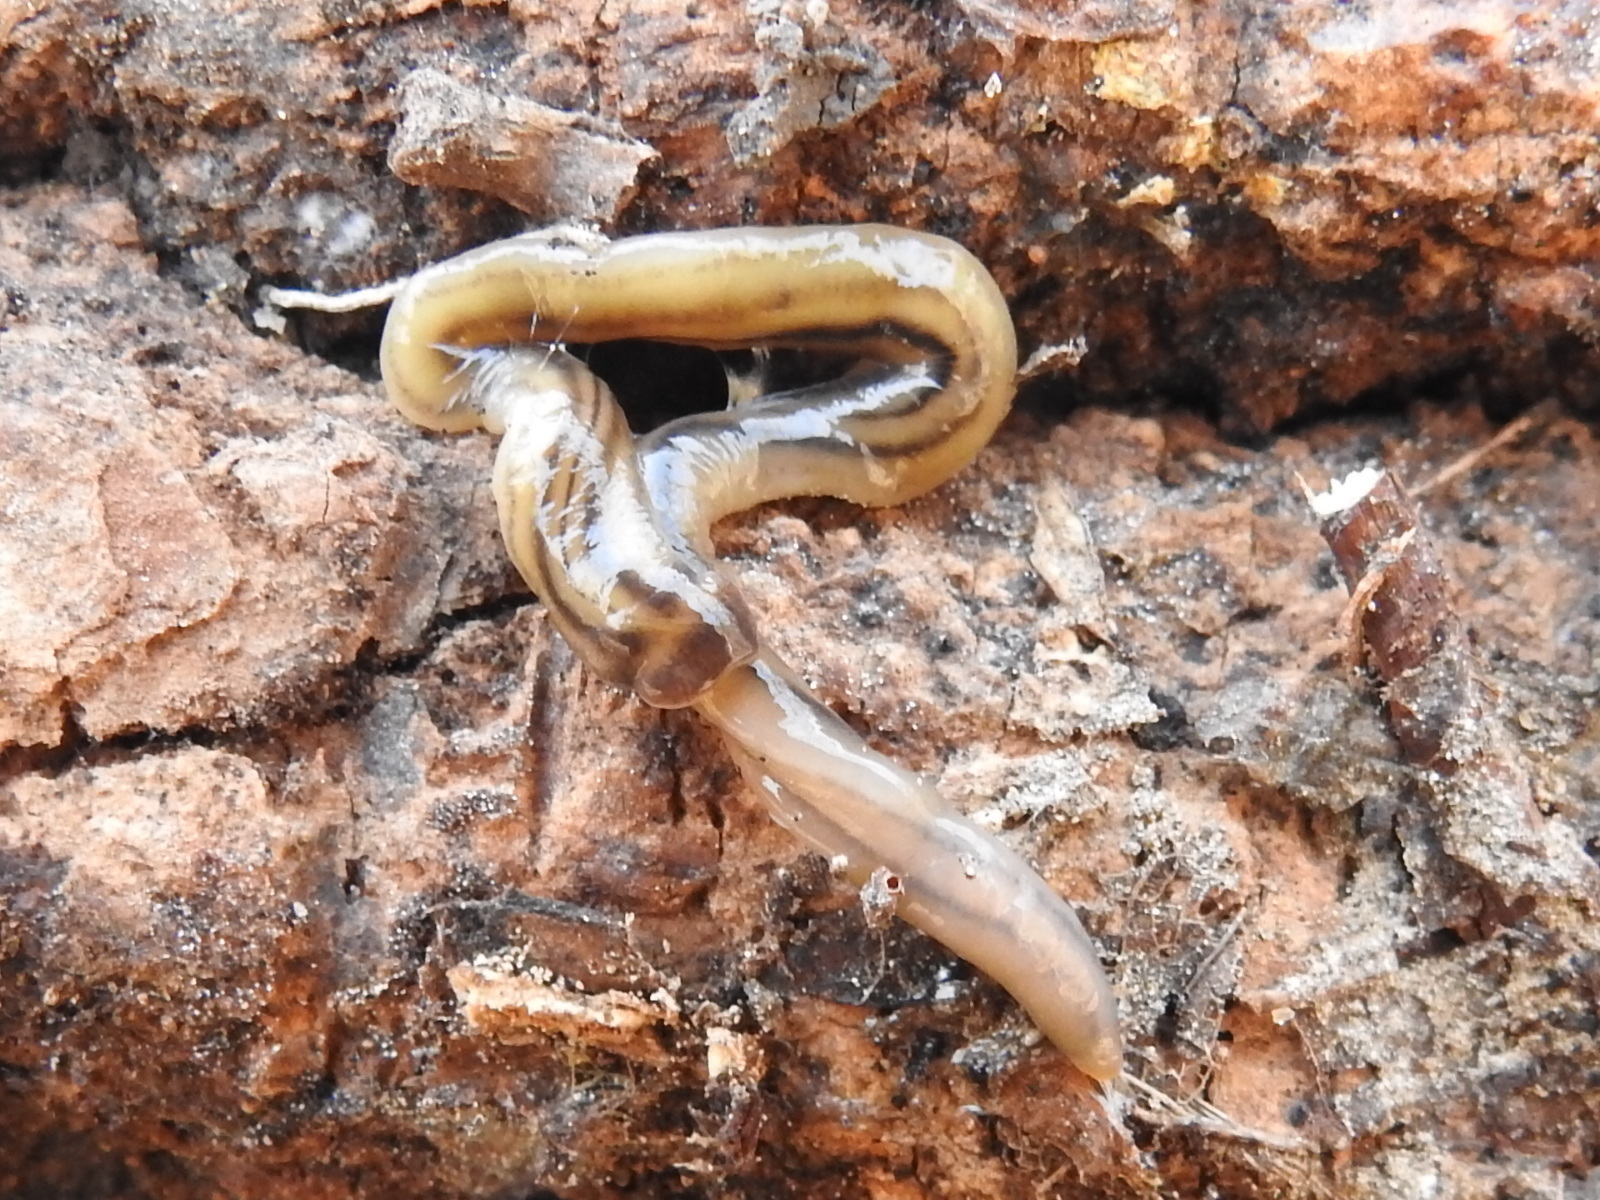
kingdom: Animalia
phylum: Platyhelminthes
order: Tricladida
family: Geoplanidae
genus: Bipalium
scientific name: Bipalium kewense
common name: Hammerhead flatworm
